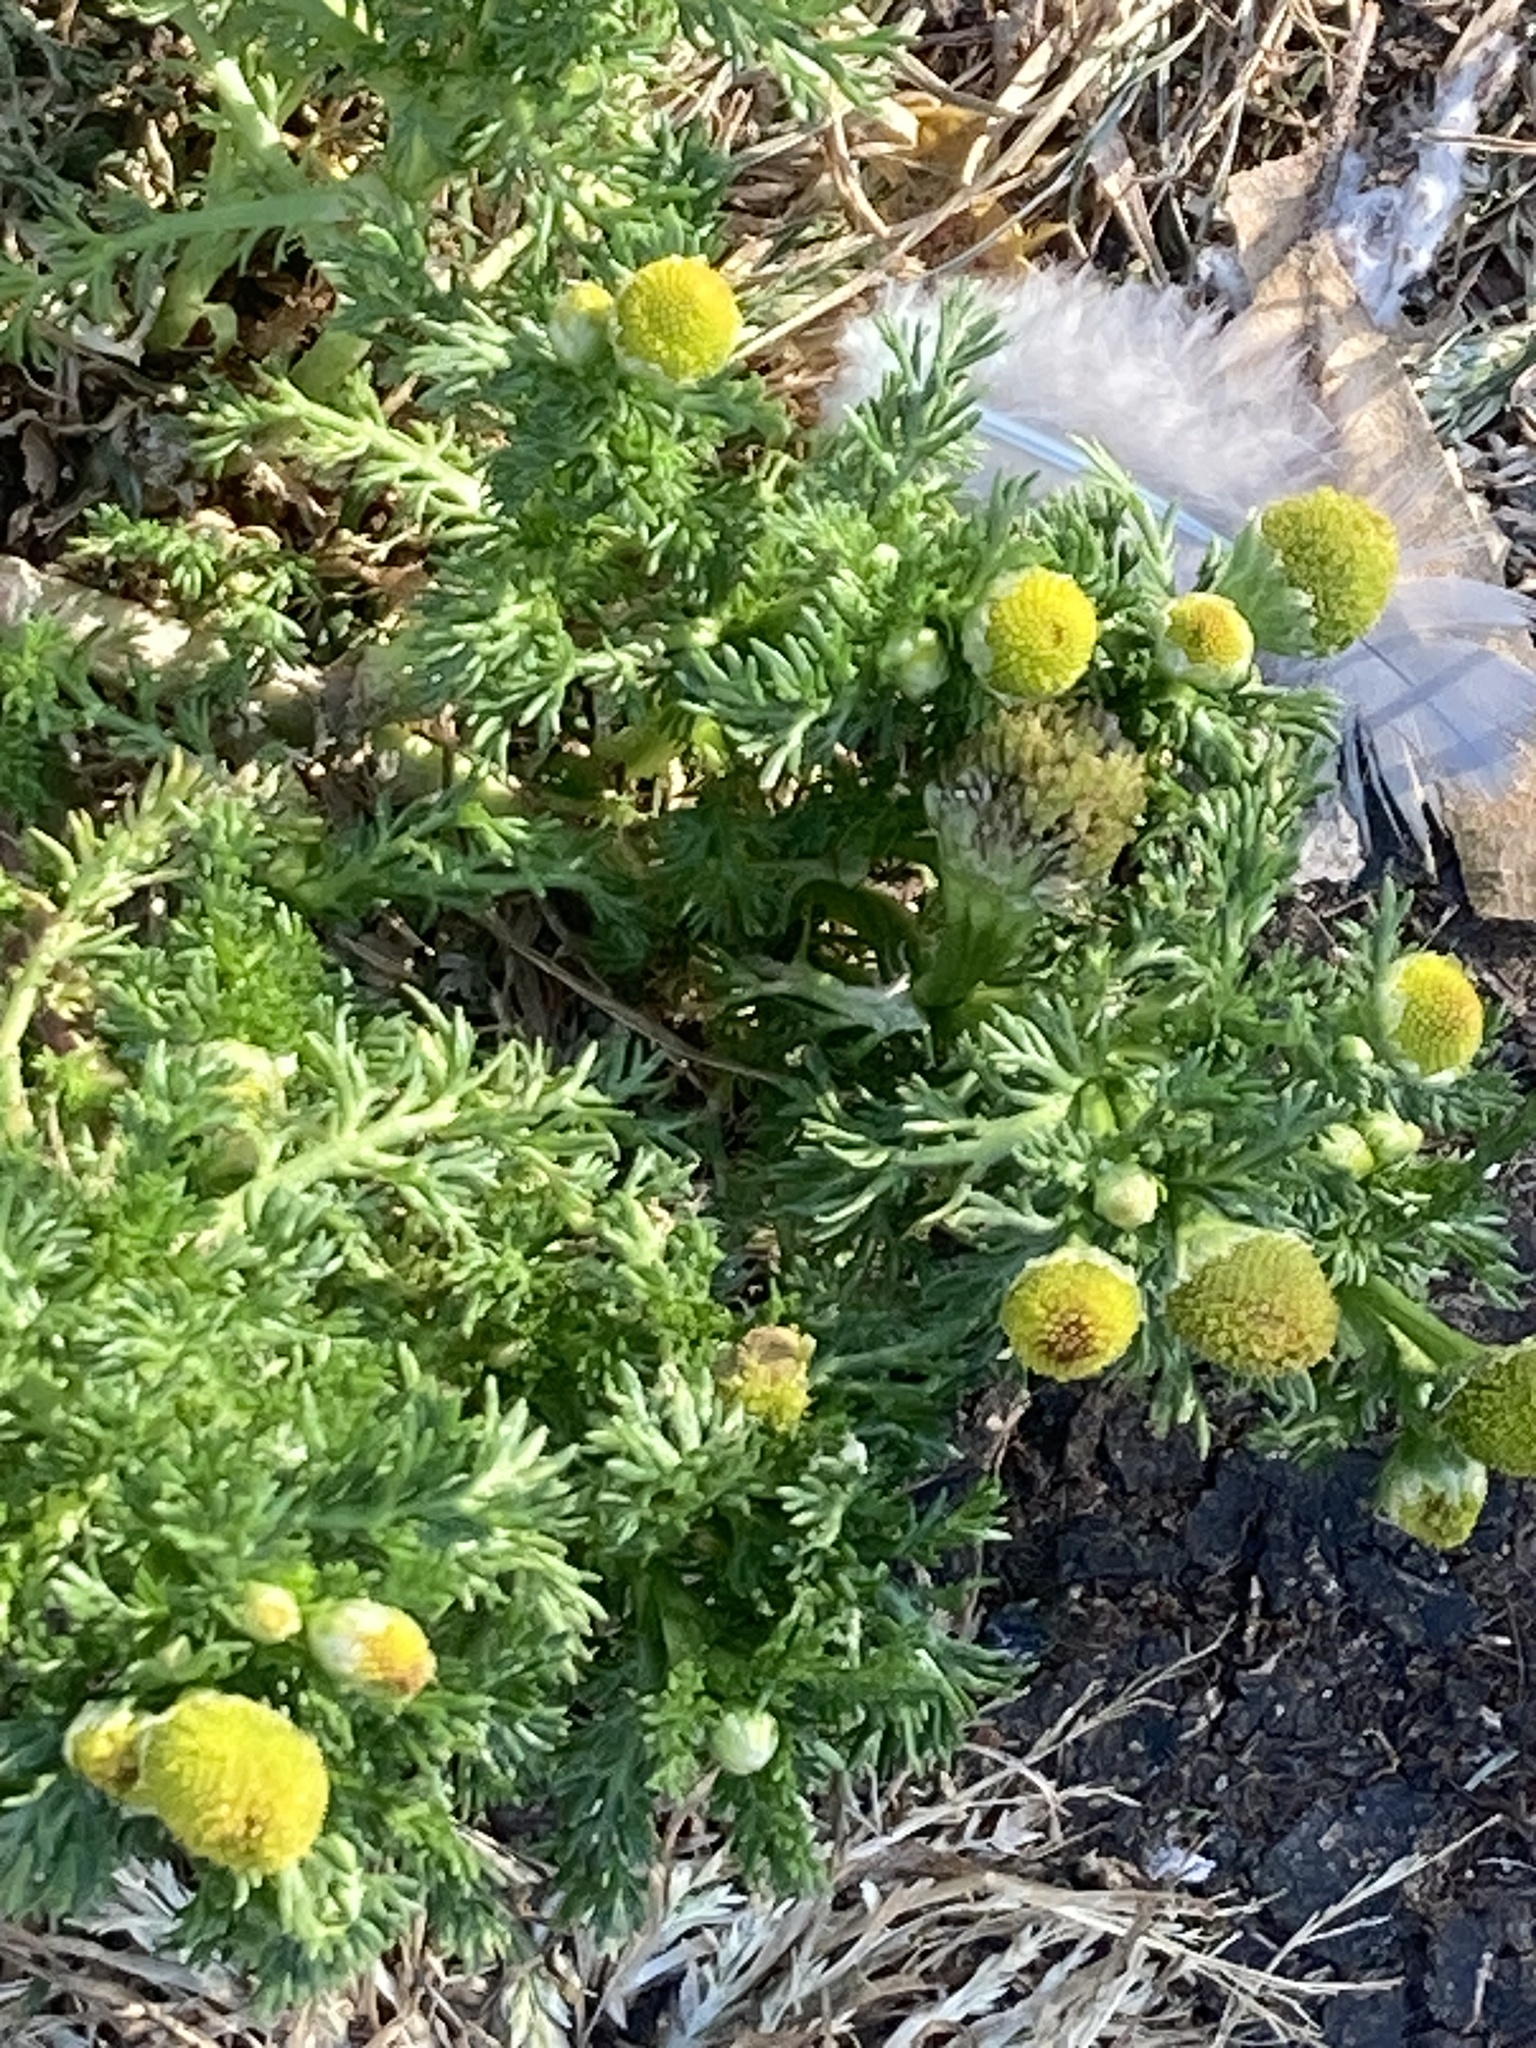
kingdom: Plantae
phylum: Tracheophyta
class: Magnoliopsida
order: Asterales
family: Asteraceae
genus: Matricaria
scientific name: Matricaria discoidea
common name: Disc mayweed
